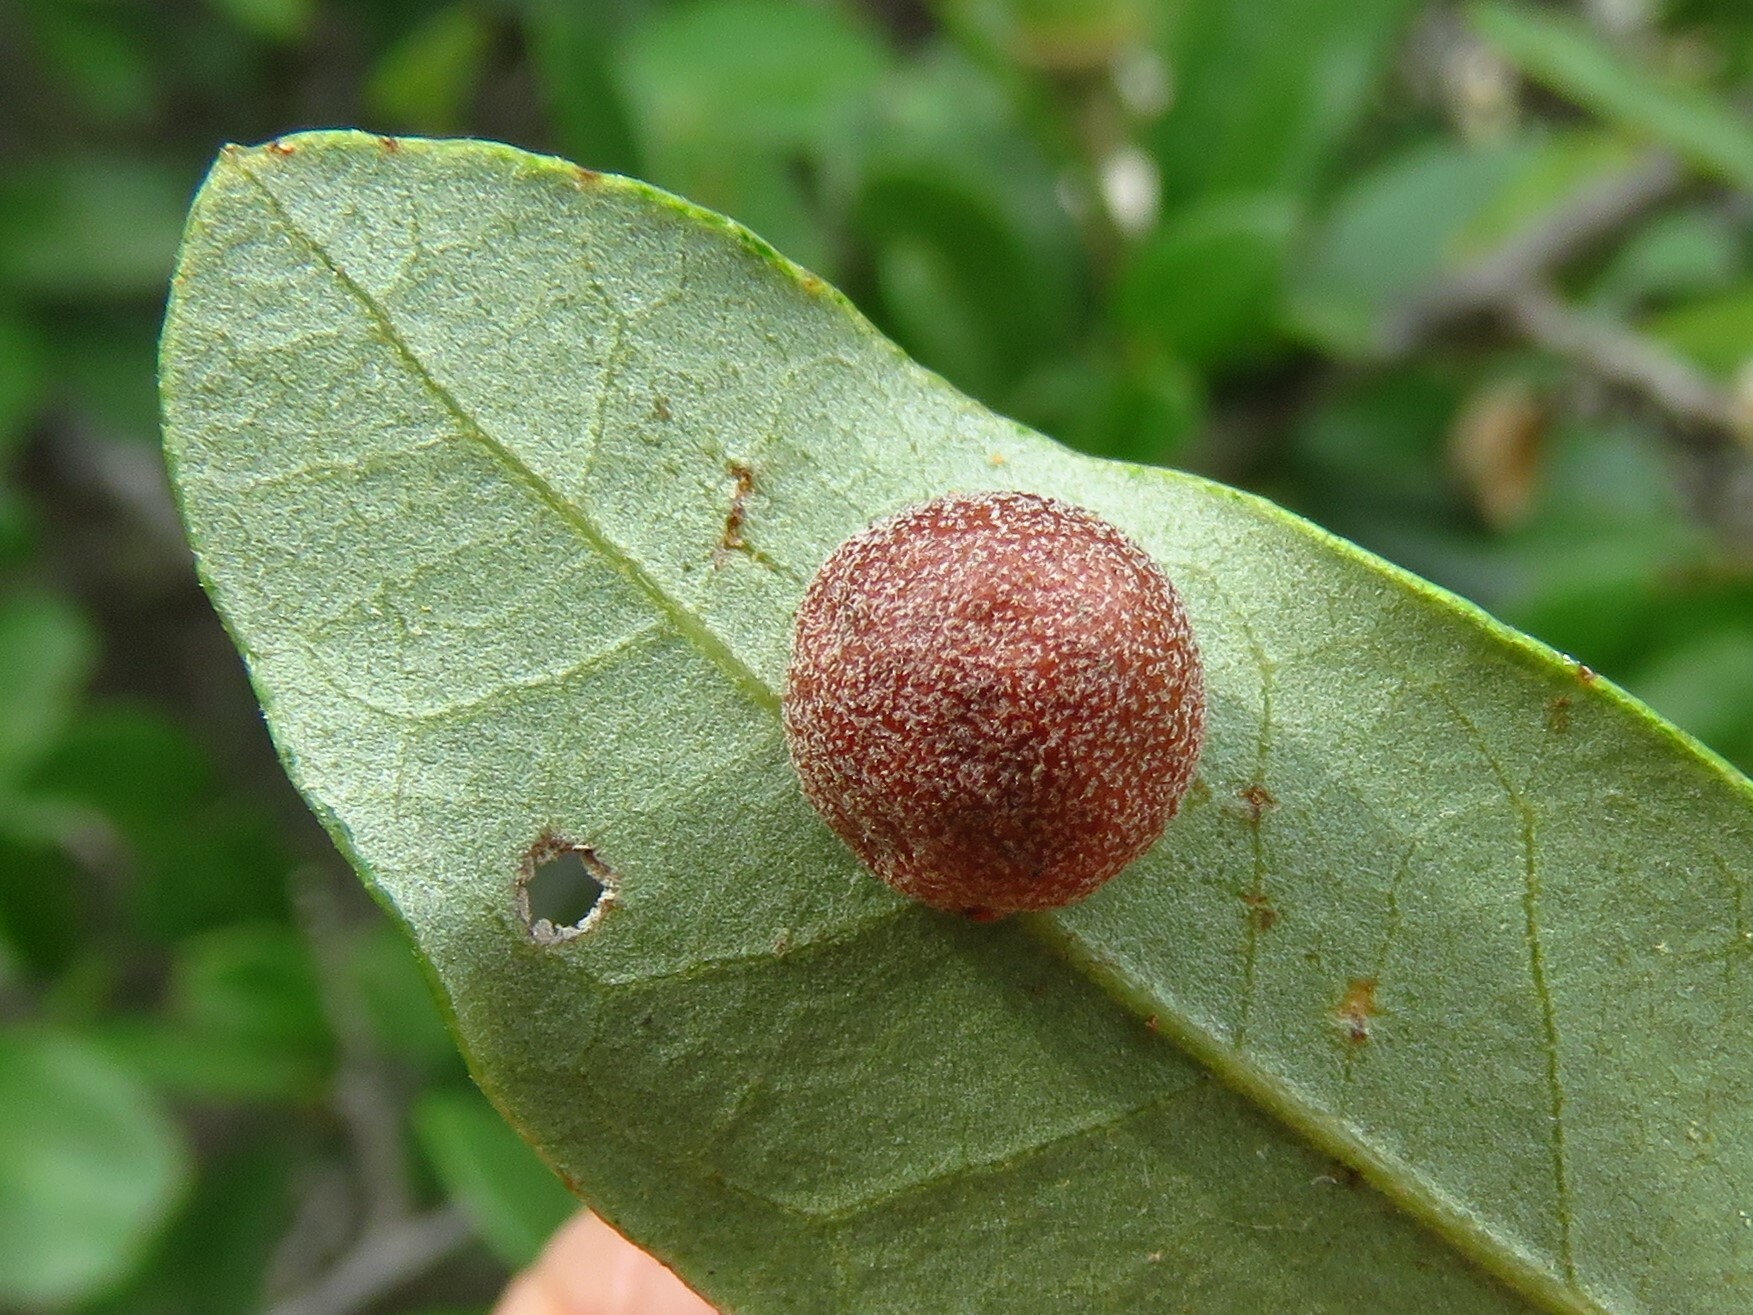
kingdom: Animalia
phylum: Arthropoda
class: Insecta
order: Hymenoptera
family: Cynipidae
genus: Belonocnema
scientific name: Belonocnema kinseyi
